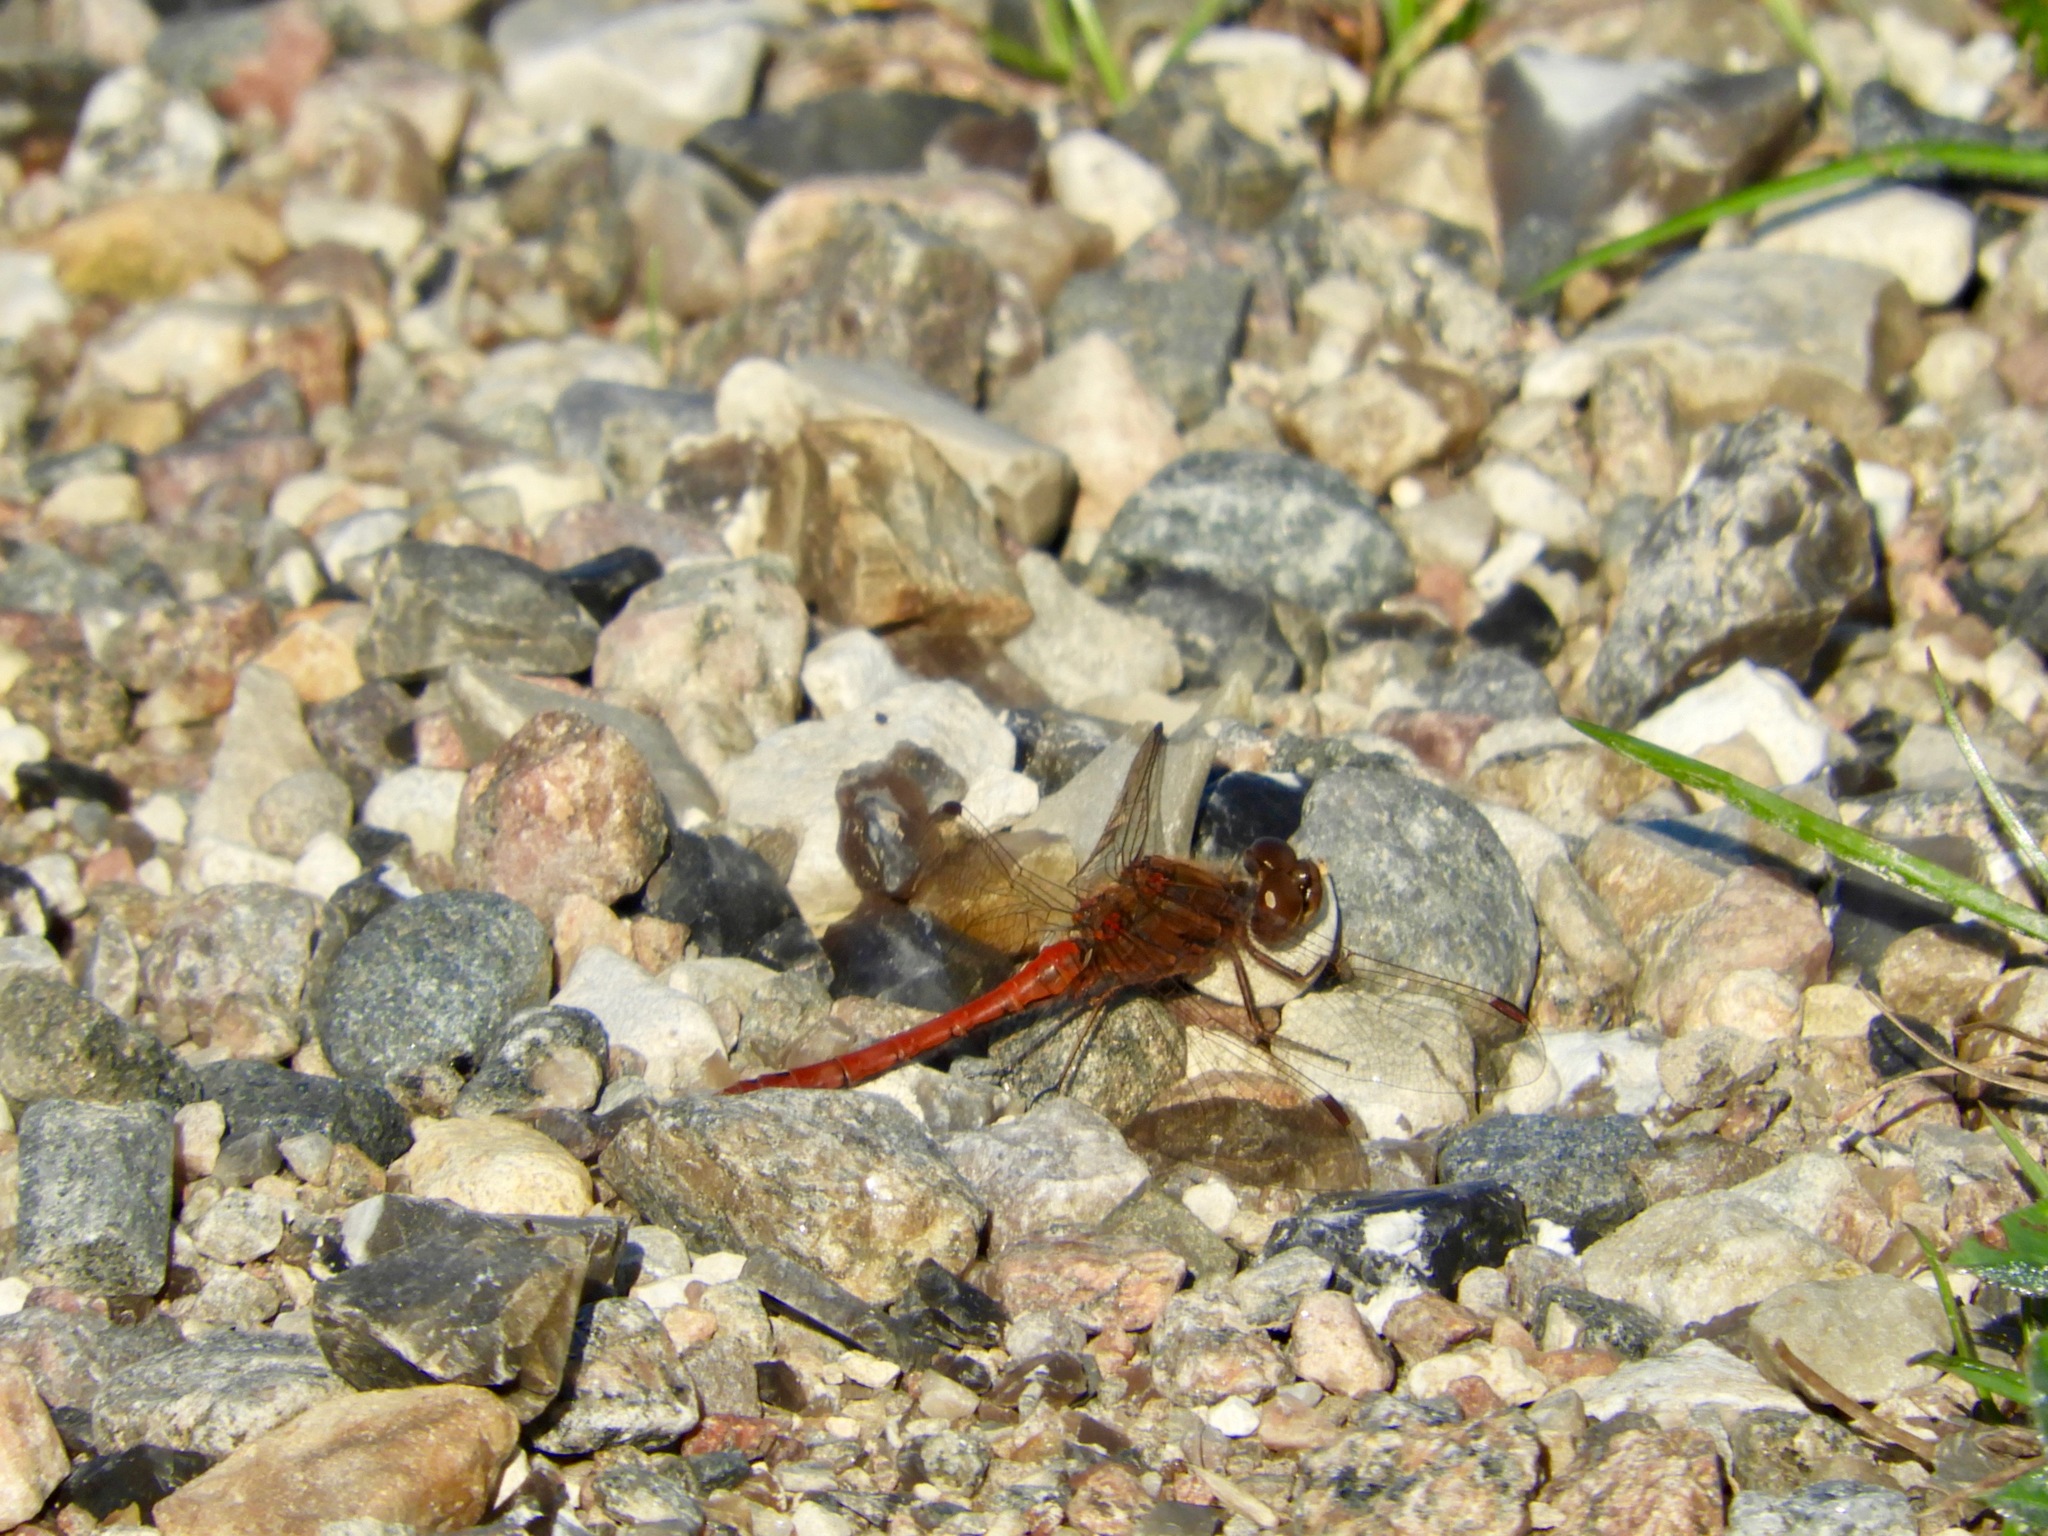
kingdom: Animalia
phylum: Arthropoda
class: Insecta
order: Odonata
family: Libellulidae
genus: Sympetrum
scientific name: Sympetrum vulgatum
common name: Vagrant darter
